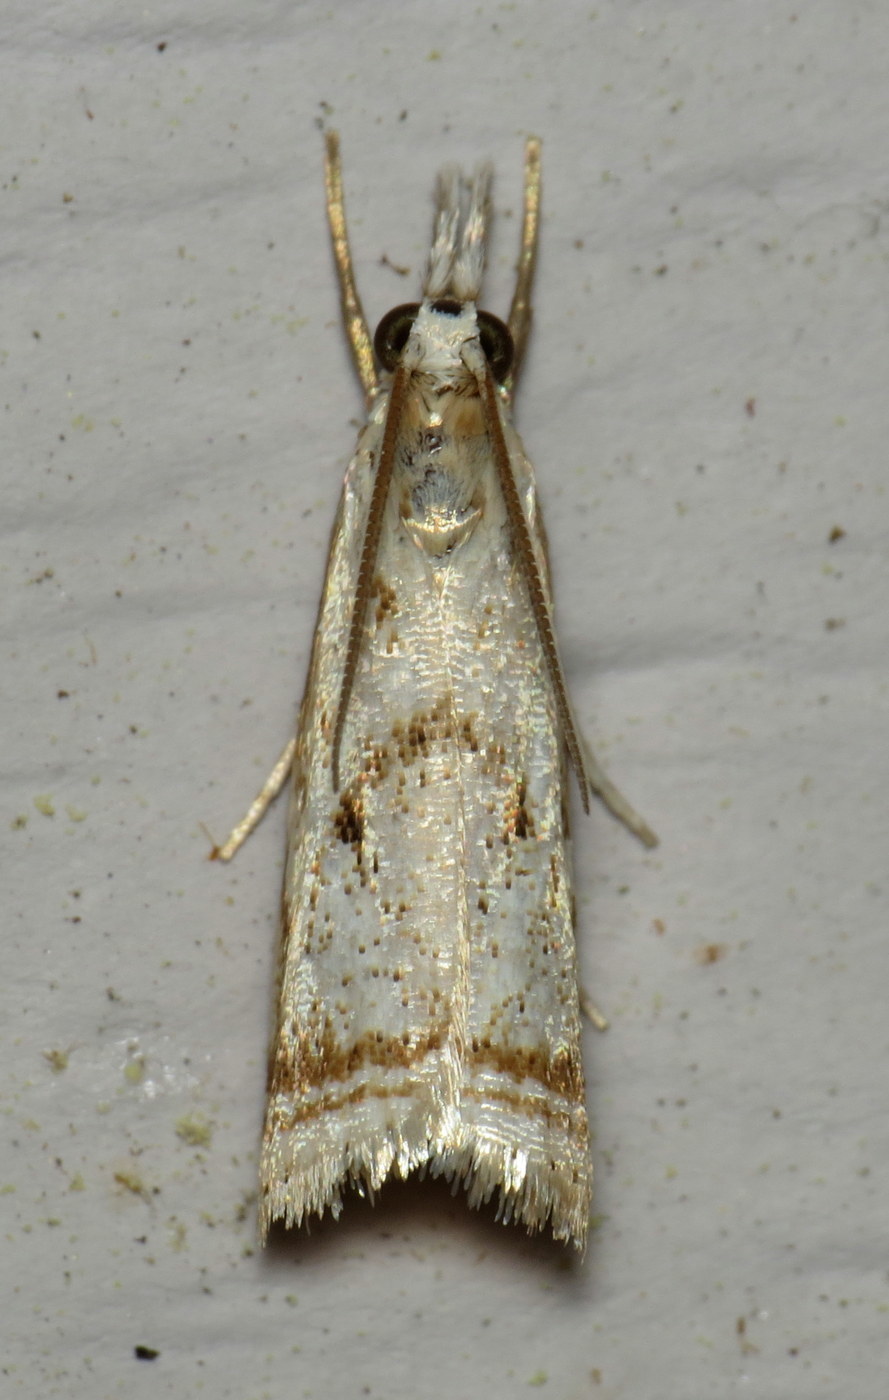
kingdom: Animalia
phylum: Arthropoda
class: Insecta
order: Lepidoptera
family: Crambidae
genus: Microcrambus
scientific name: Microcrambus elegans
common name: Elegant grass-veneer
